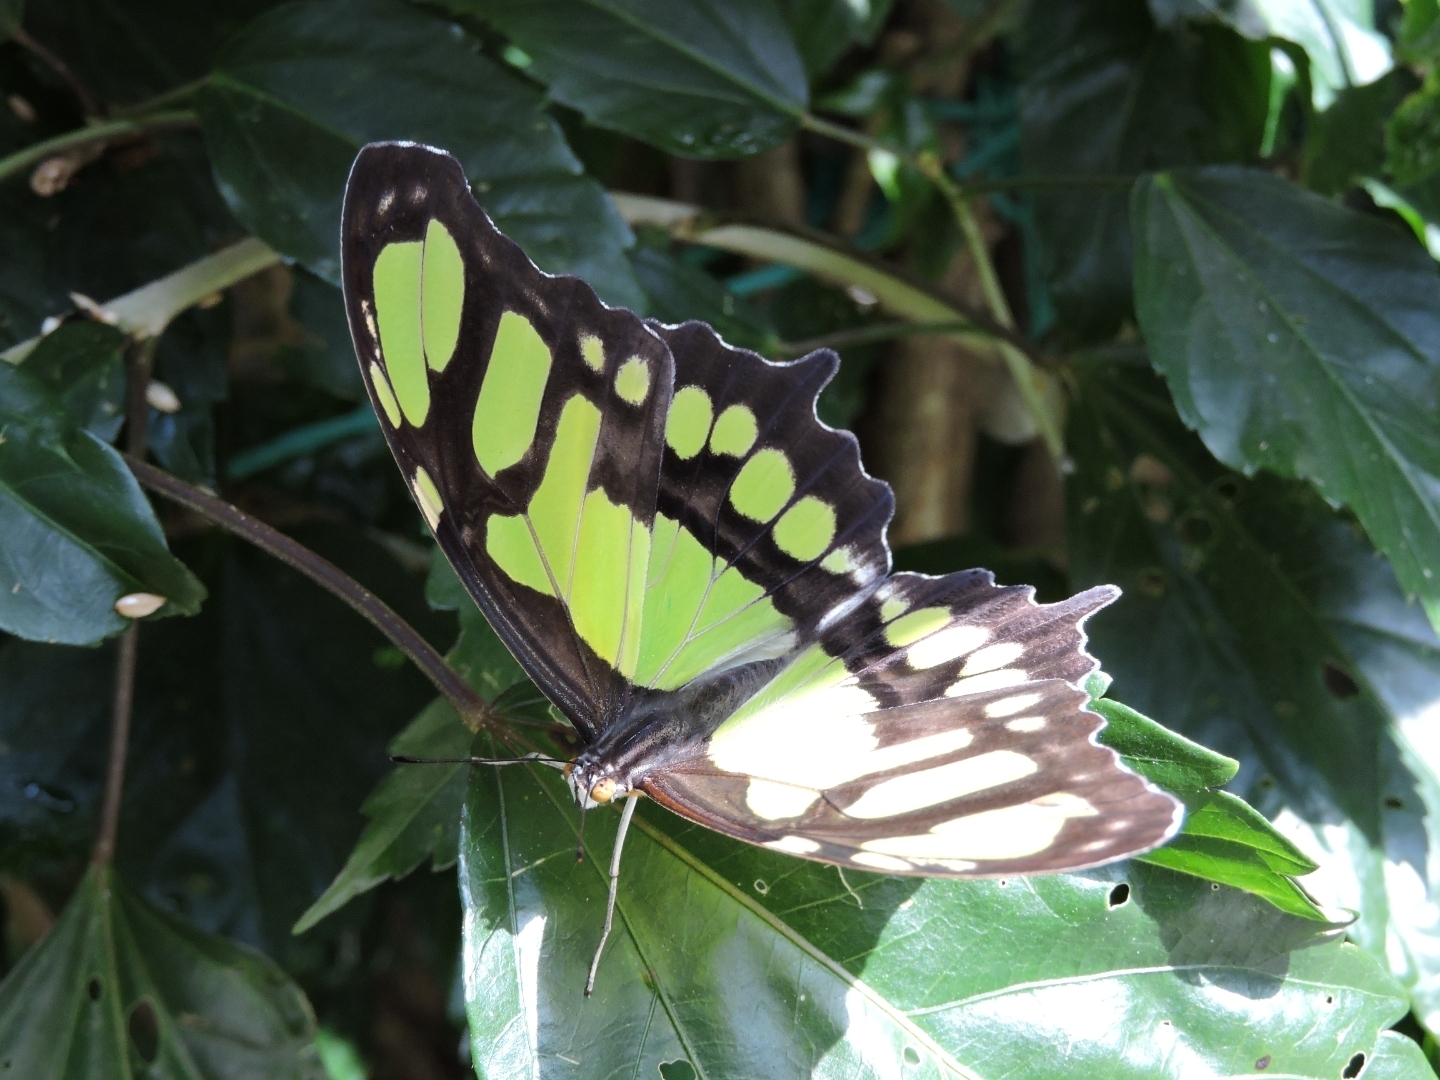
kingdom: Animalia
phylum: Arthropoda
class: Insecta
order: Lepidoptera
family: Nymphalidae
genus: Siproeta
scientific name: Siproeta stelenes
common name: Malachite
